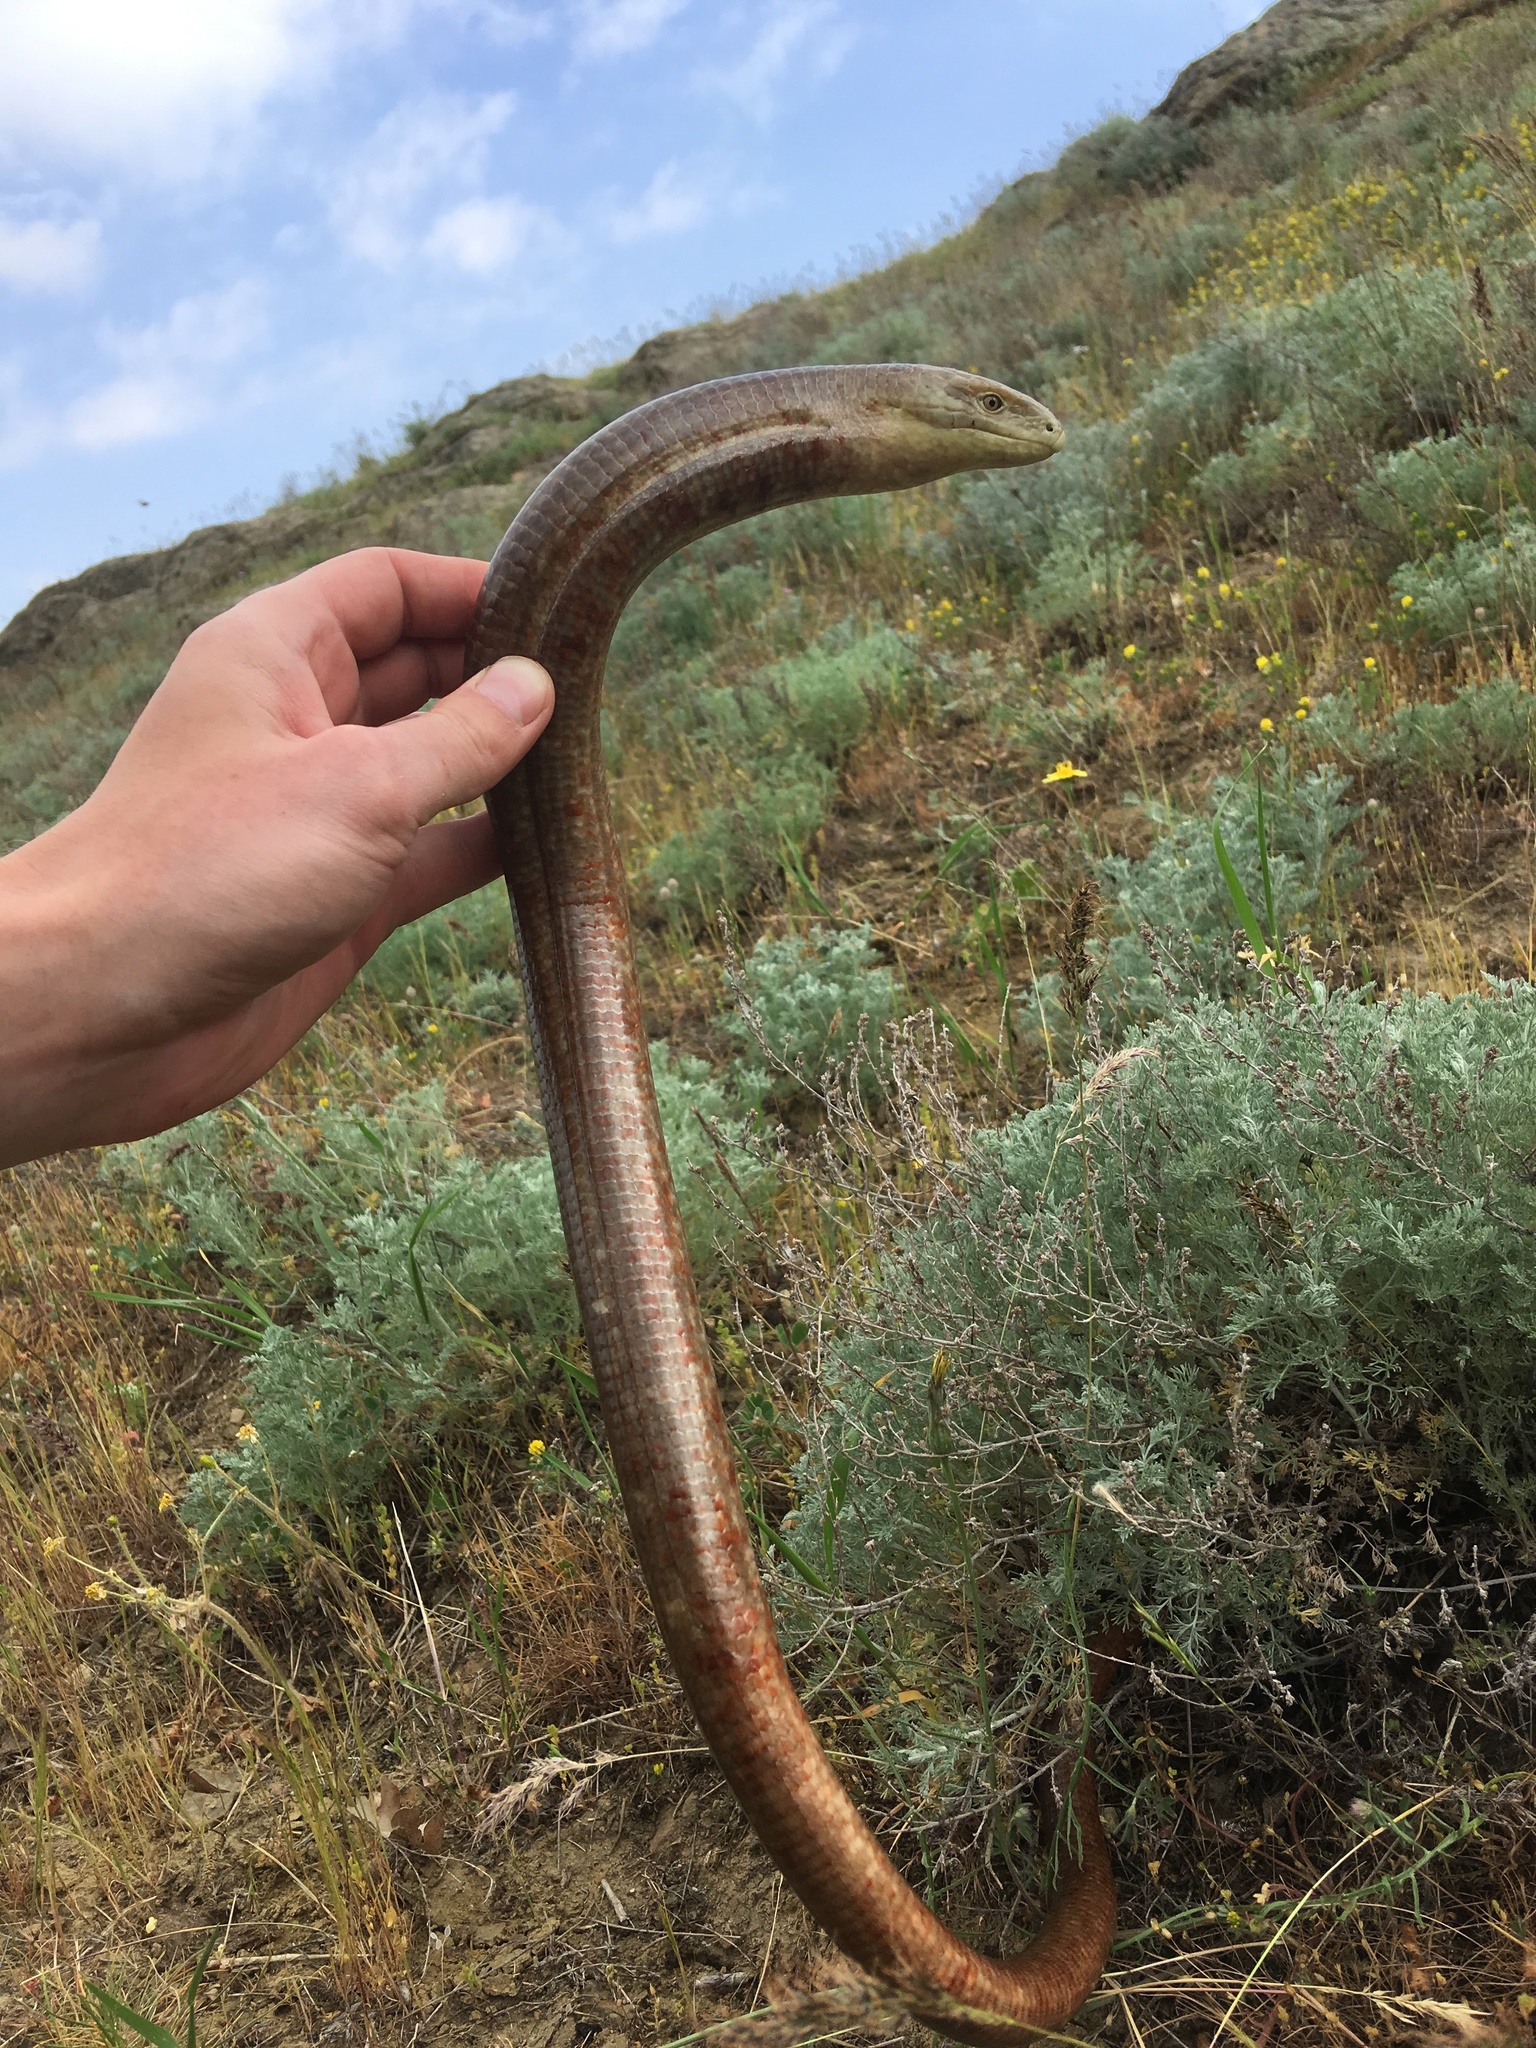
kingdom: Animalia
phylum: Chordata
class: Squamata
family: Anguidae
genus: Pseudopus
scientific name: Pseudopus apodus
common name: European glass lizard
